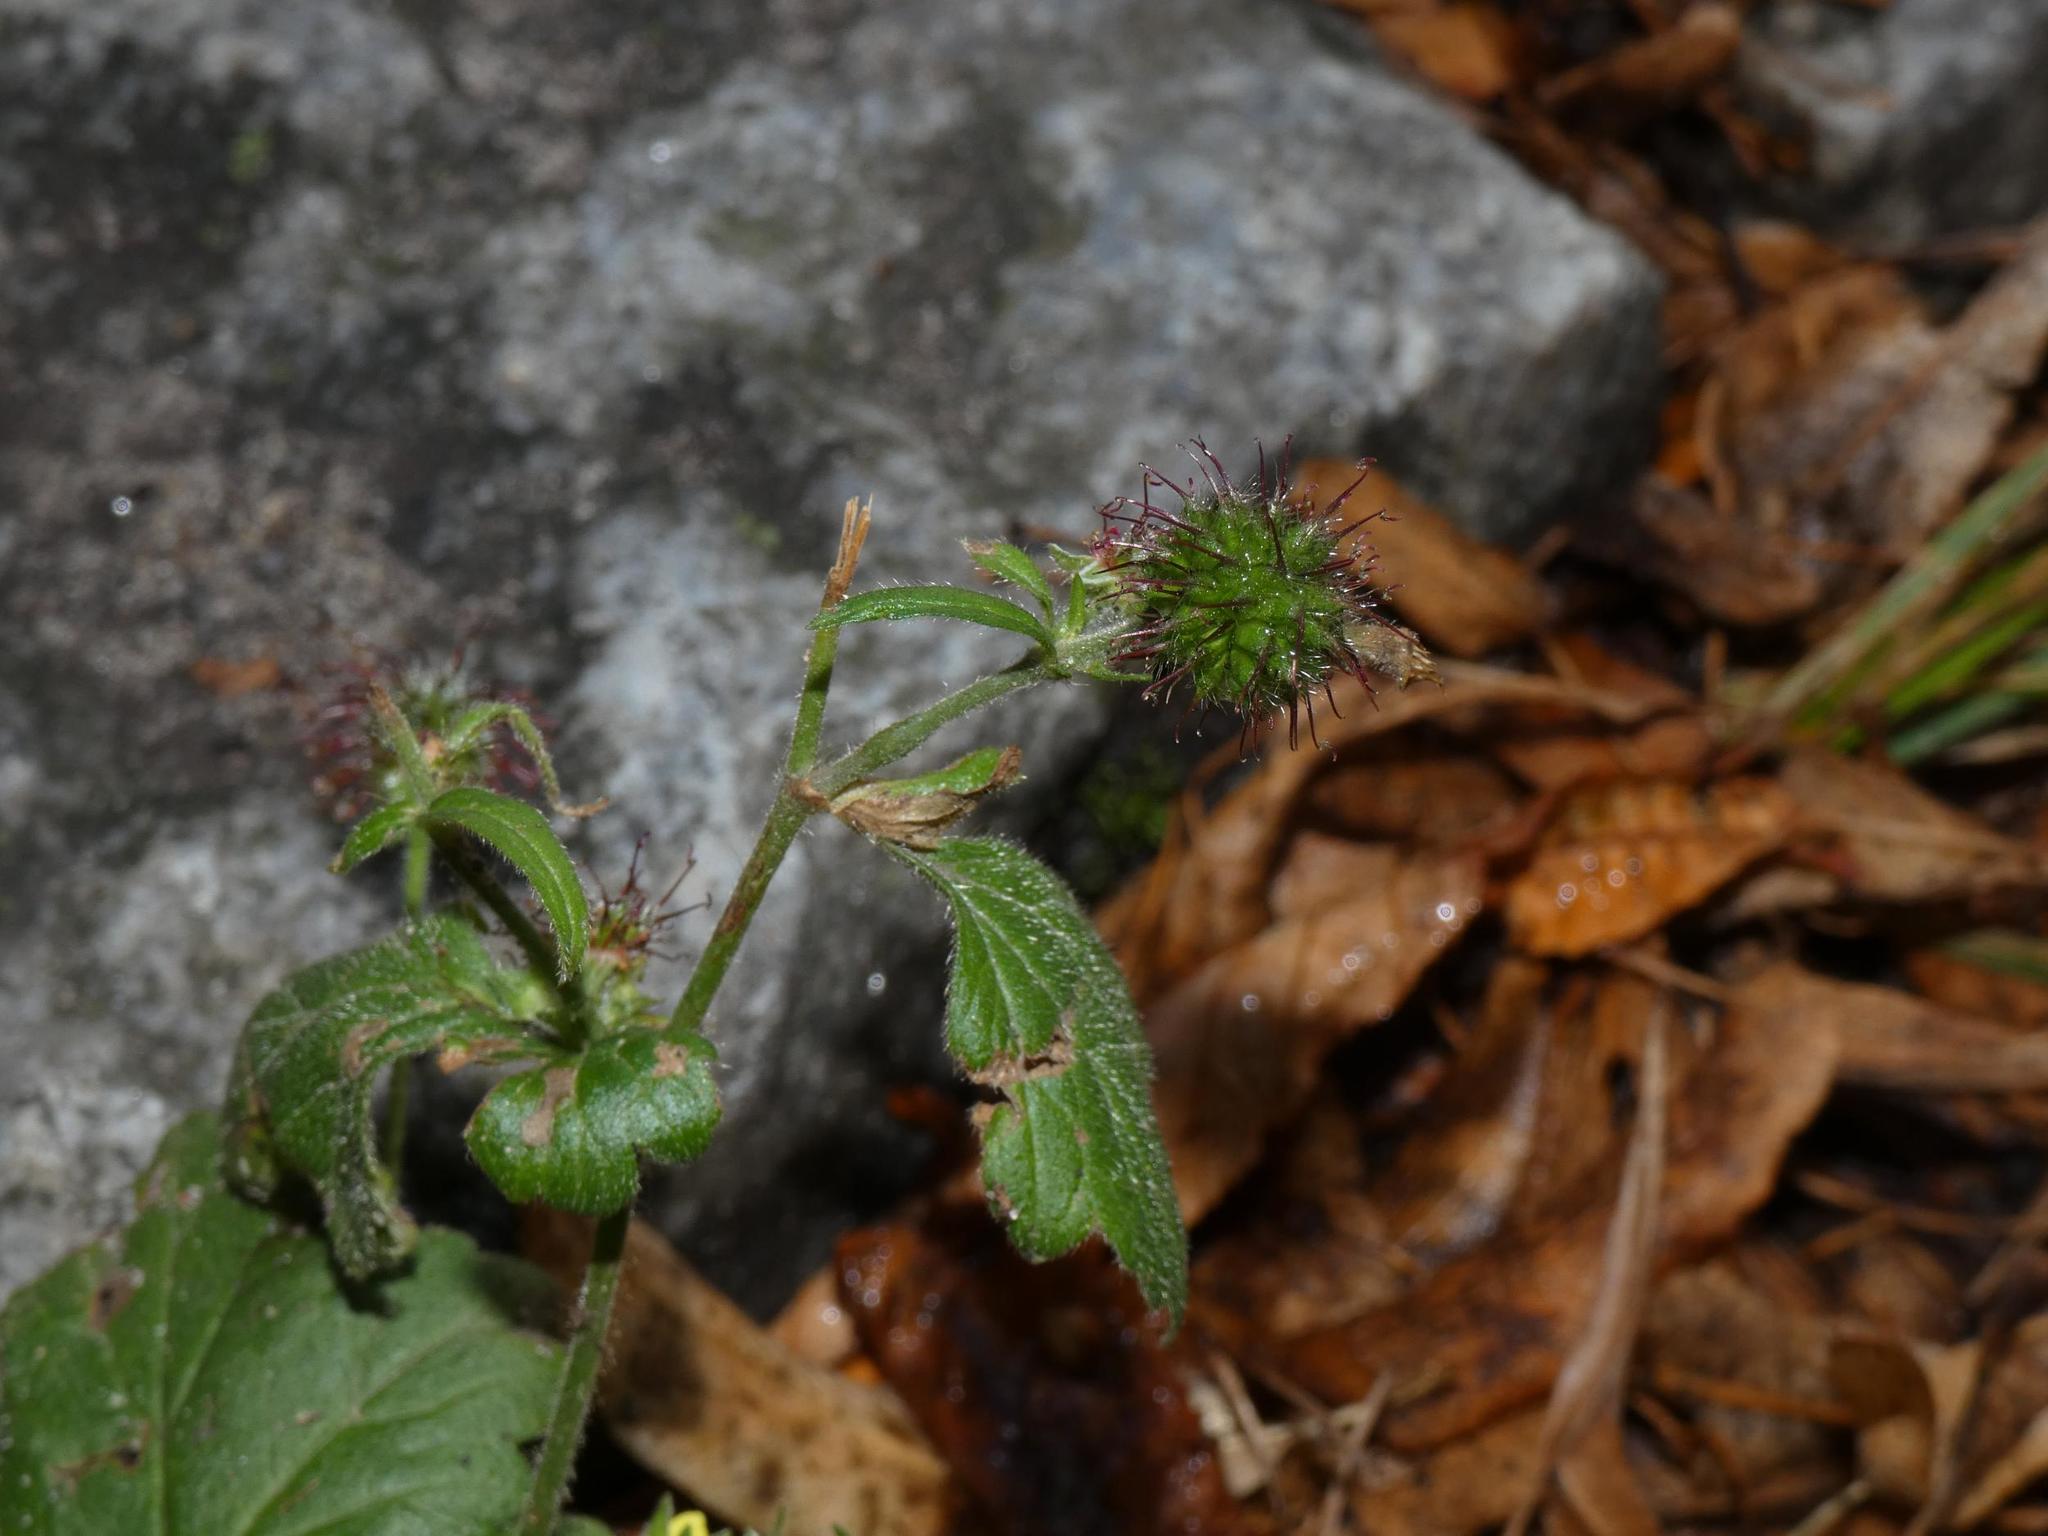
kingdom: Plantae
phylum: Tracheophyta
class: Magnoliopsida
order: Rosales
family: Rosaceae
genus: Geum
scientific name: Geum urbanum
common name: Wood avens
